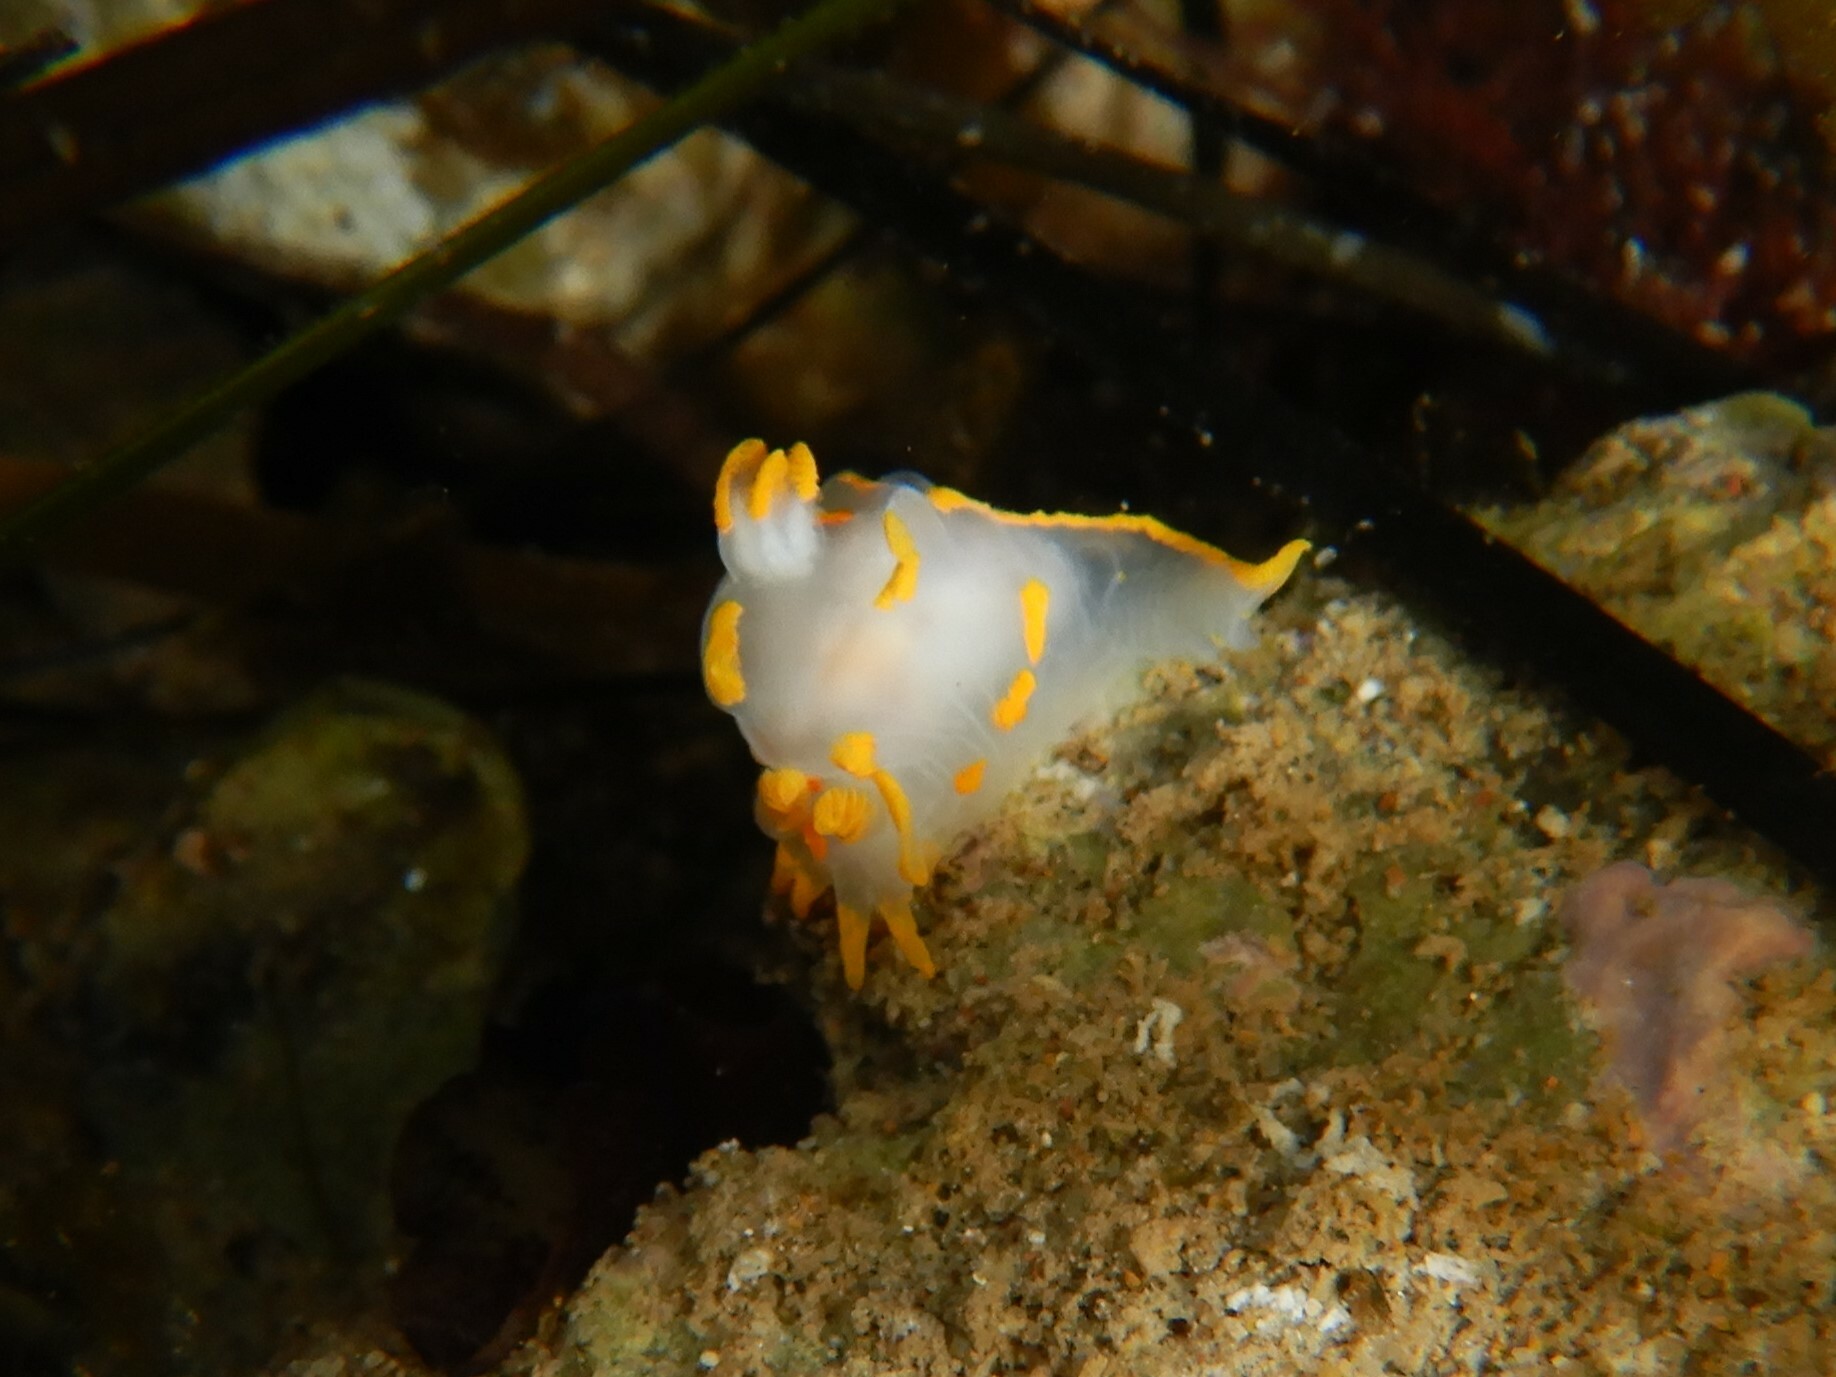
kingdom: Animalia
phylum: Mollusca
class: Gastropoda
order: Nudibranchia
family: Polyceridae
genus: Polycera
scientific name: Polycera quadrilineata
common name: Four-striped polycera
